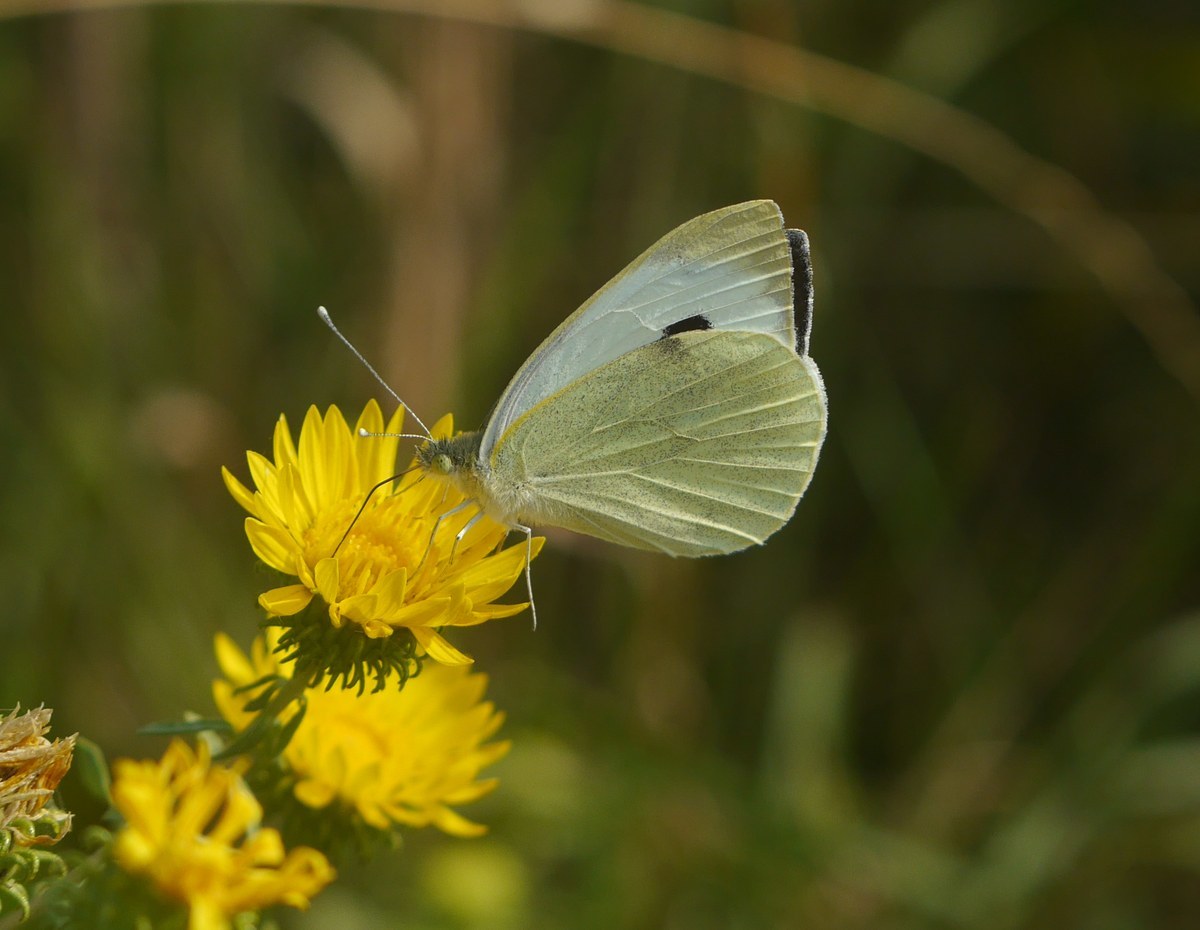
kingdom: Animalia
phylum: Arthropoda
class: Insecta
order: Lepidoptera
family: Pieridae
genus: Pieris
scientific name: Pieris brassicae
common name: Large white
